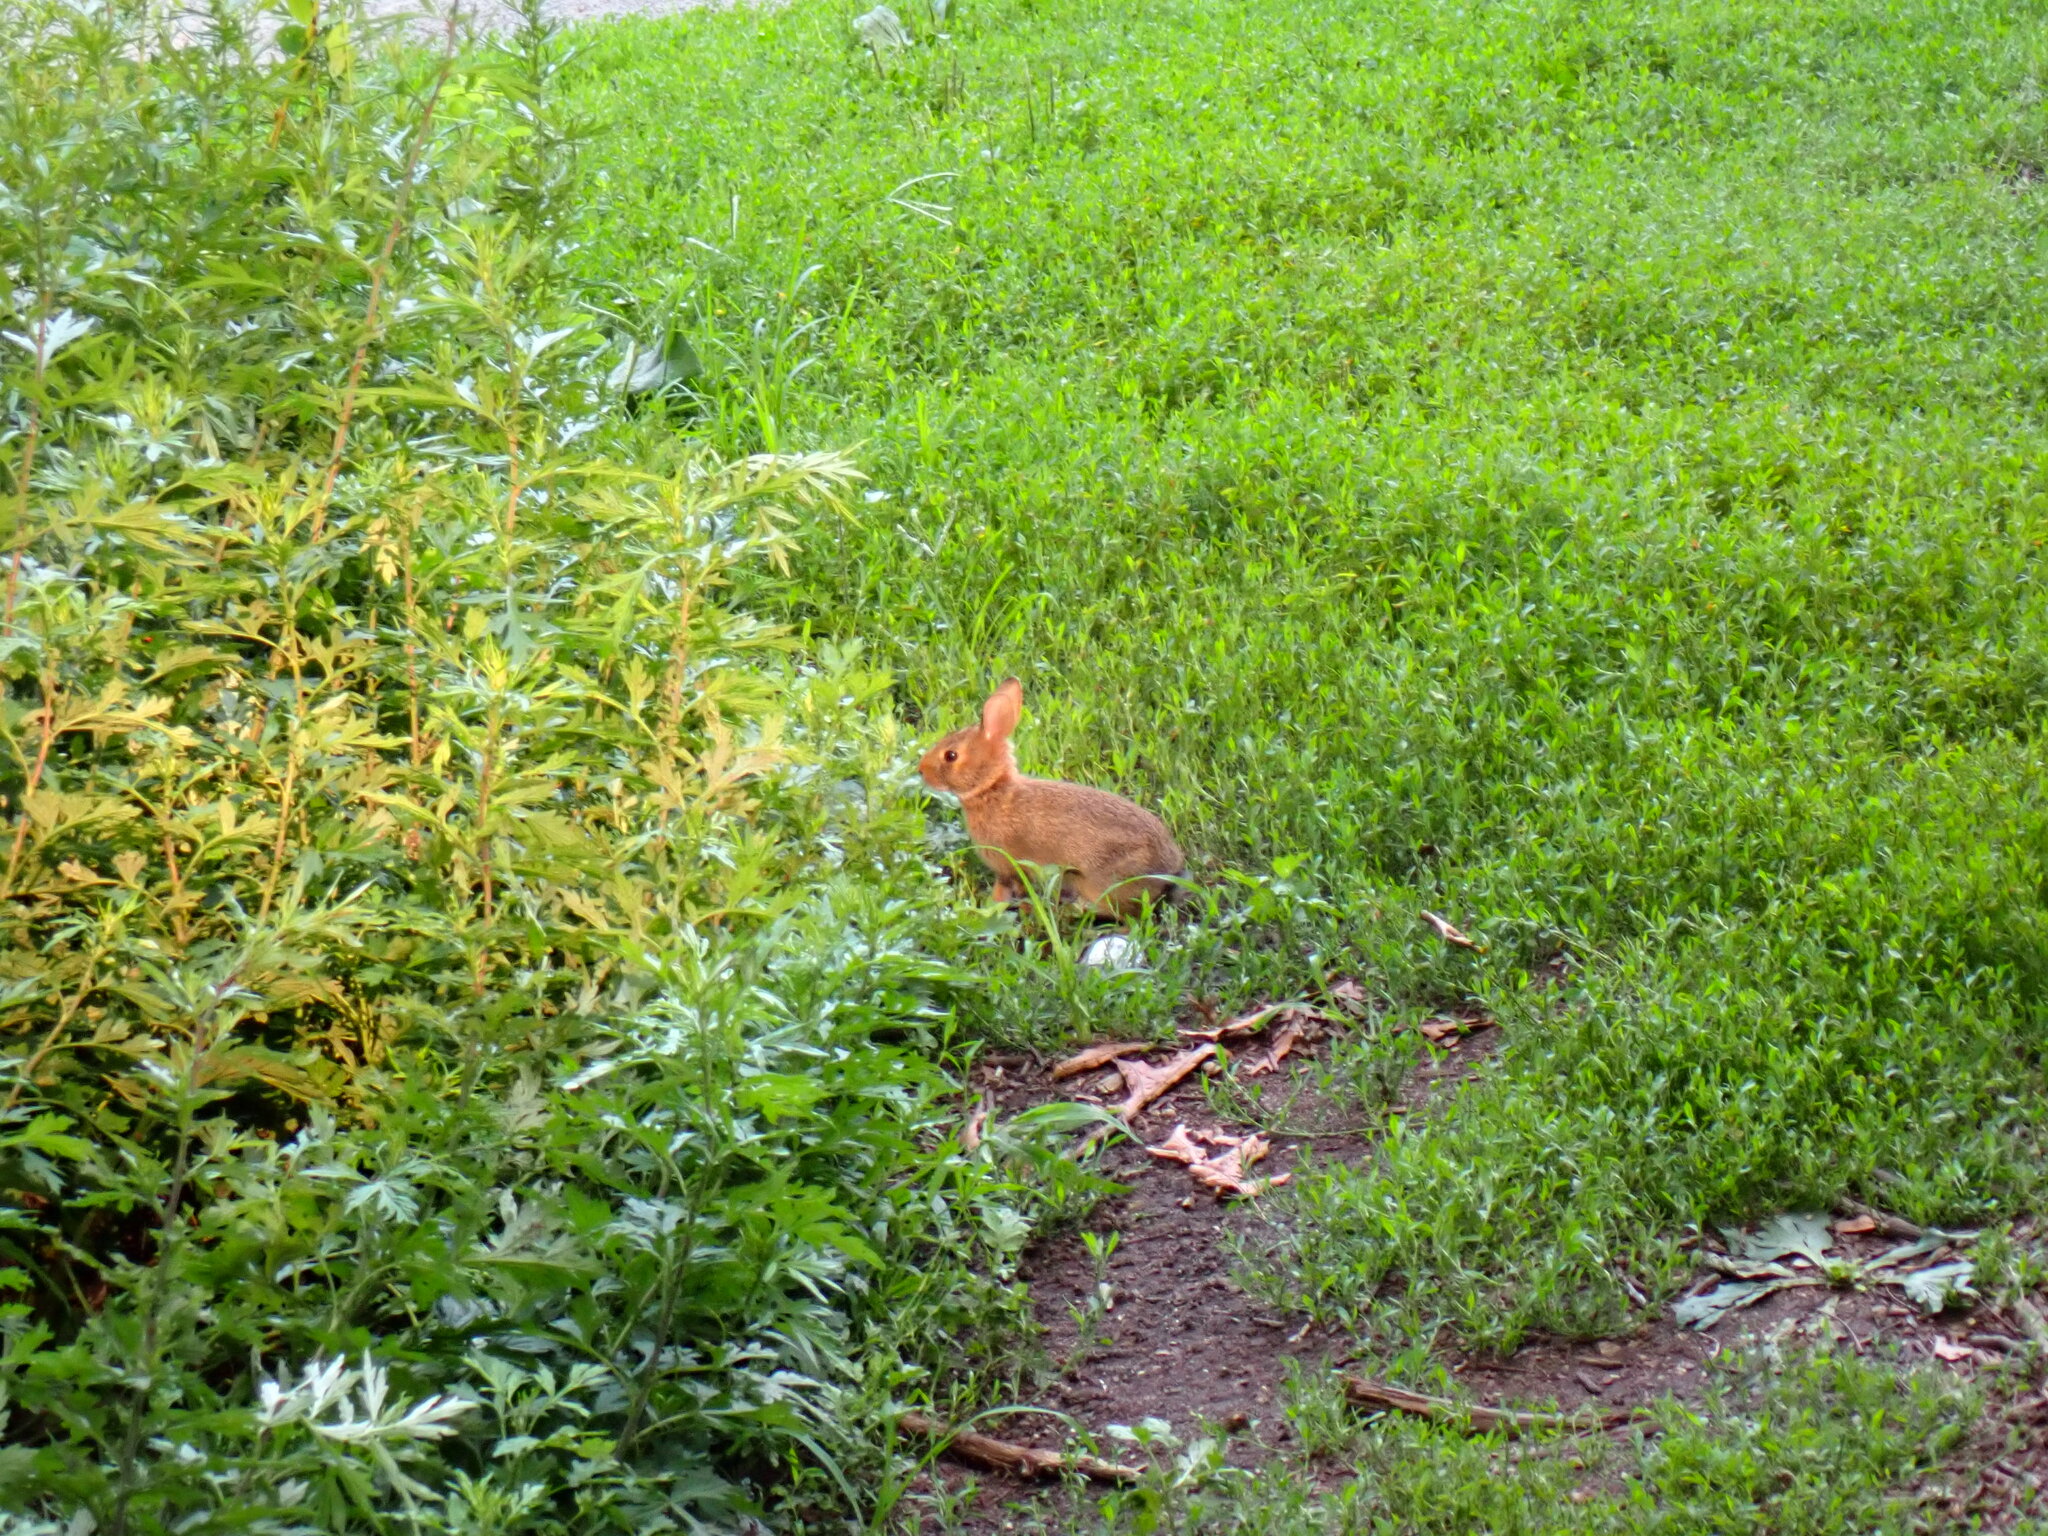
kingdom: Animalia
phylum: Chordata
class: Mammalia
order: Lagomorpha
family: Leporidae
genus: Sylvilagus
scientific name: Sylvilagus floridanus
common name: Eastern cottontail
